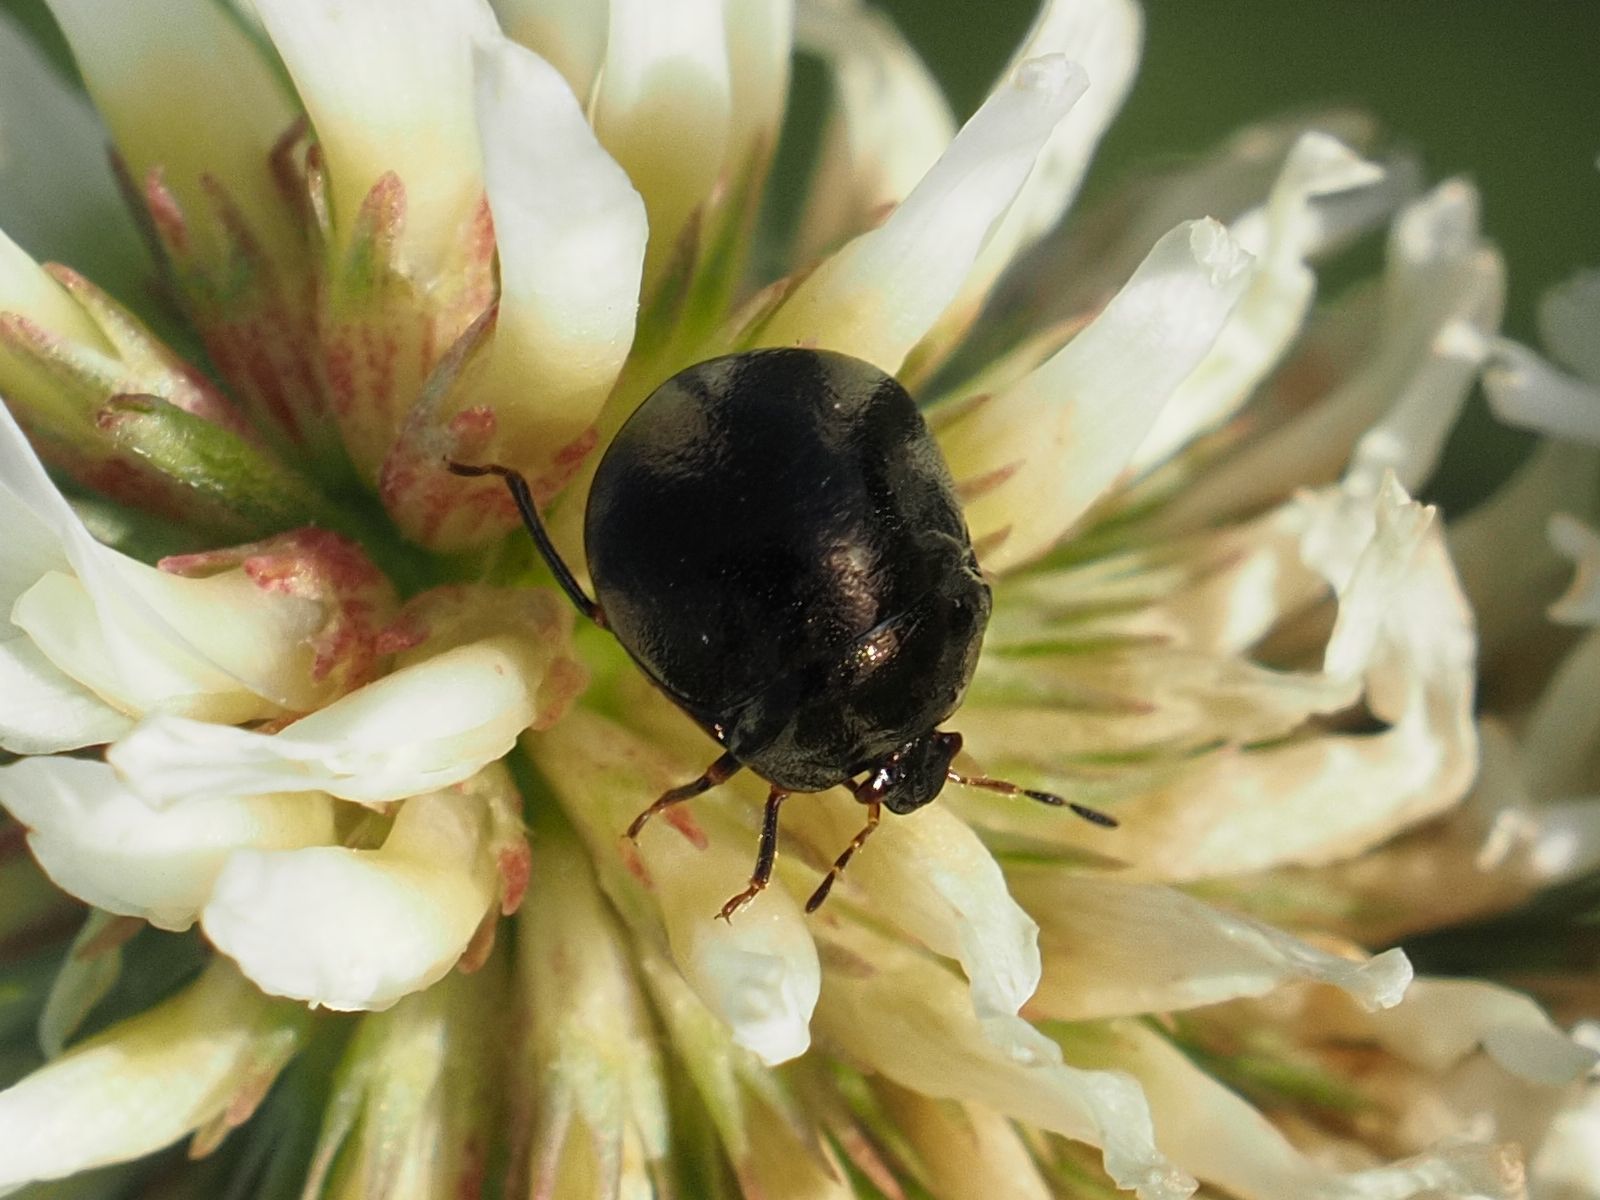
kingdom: Animalia
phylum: Arthropoda
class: Insecta
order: Hemiptera
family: Plataspidae
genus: Coptosoma
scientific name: Coptosoma scutellatum
